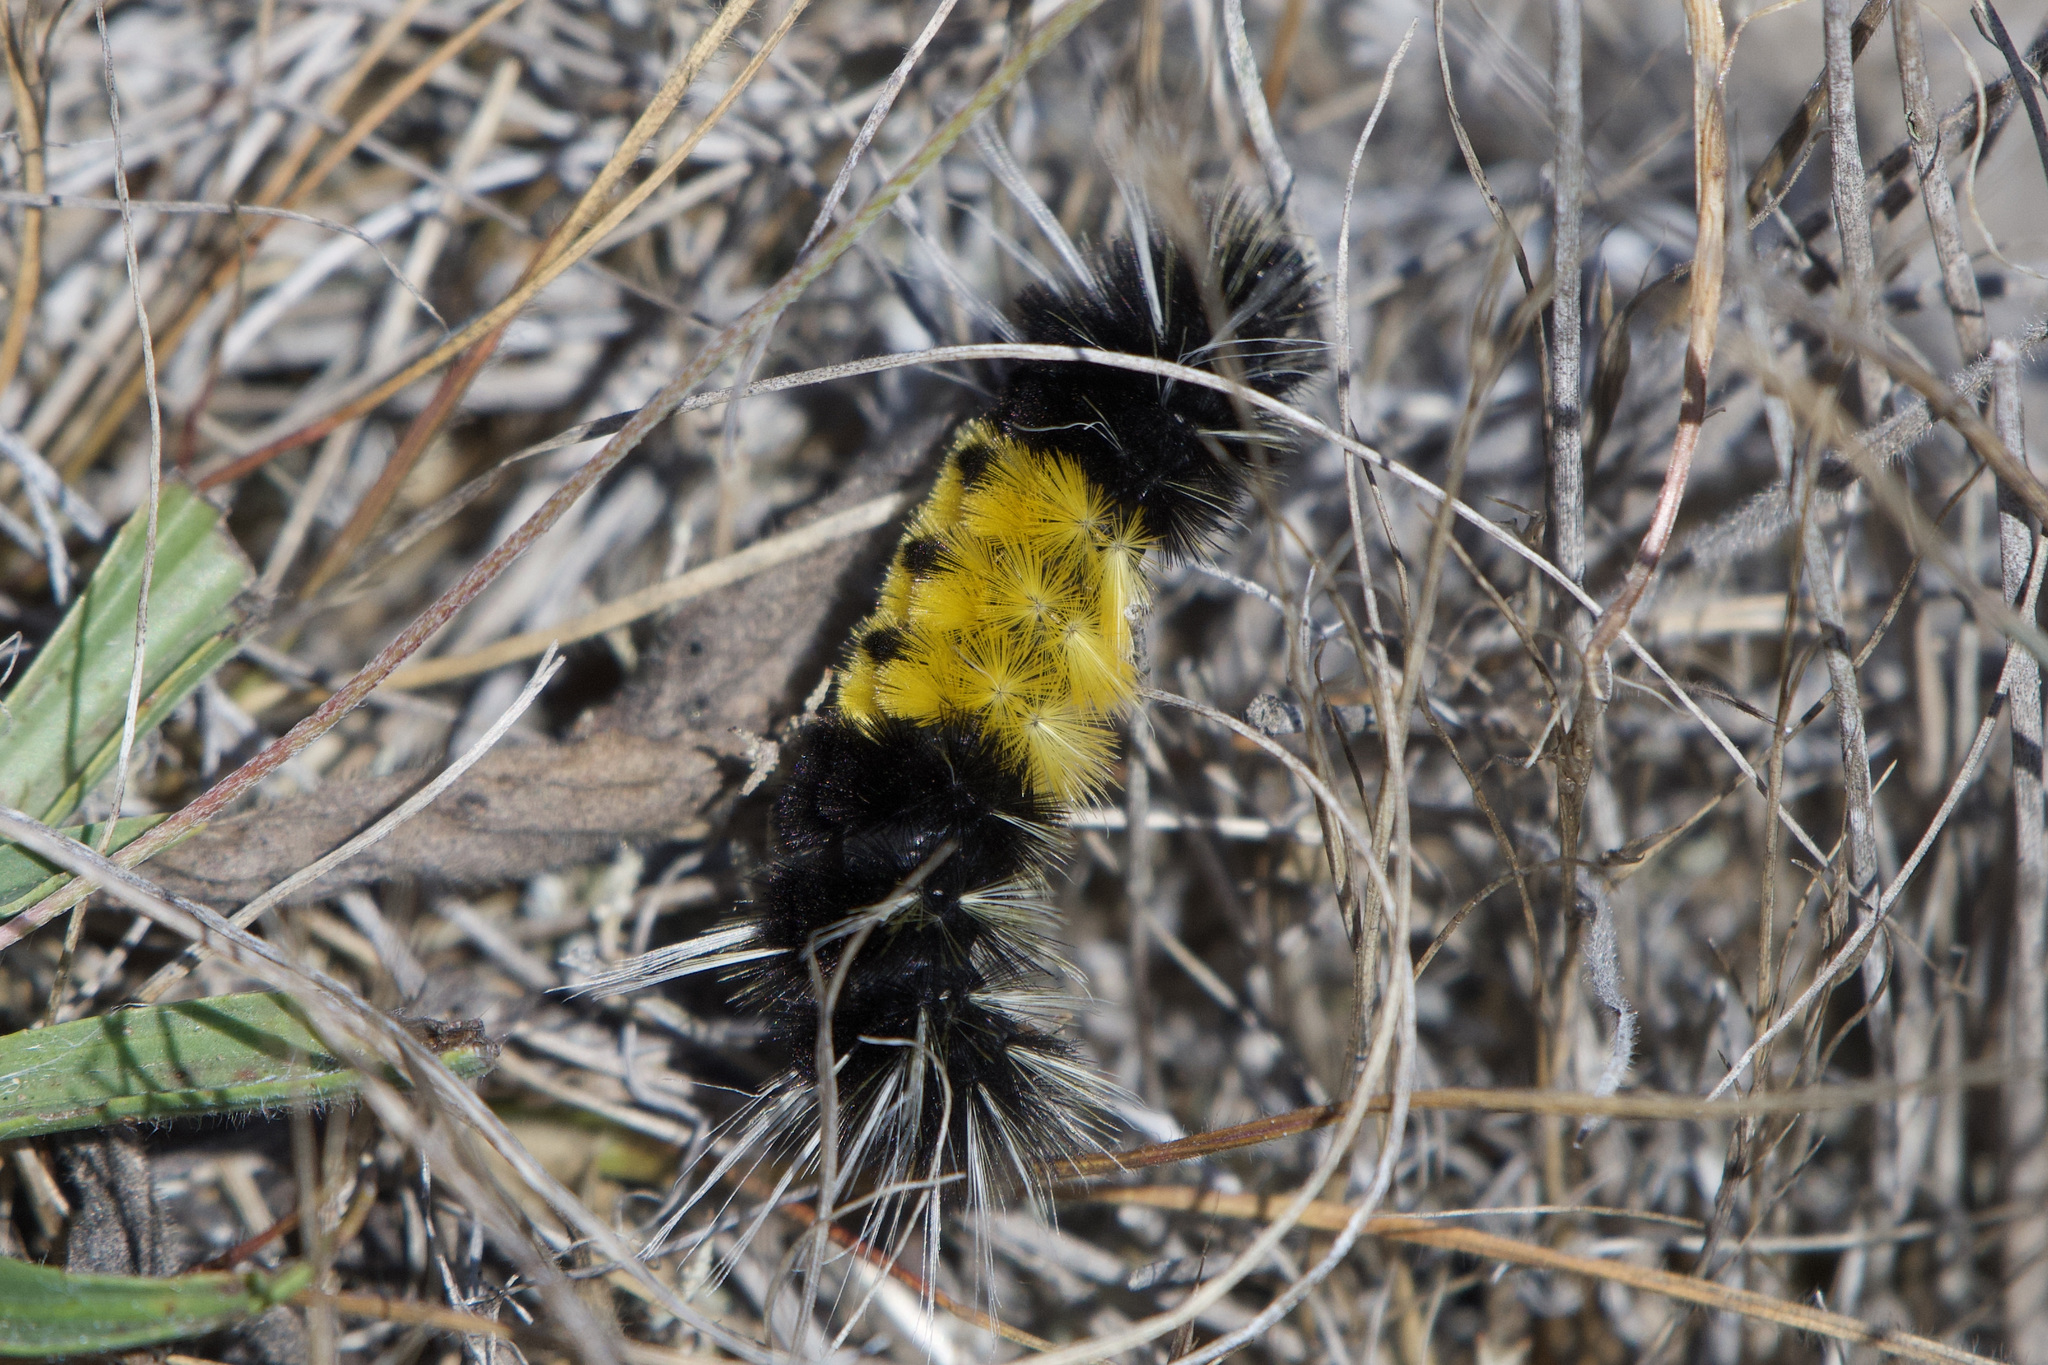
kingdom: Animalia
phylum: Arthropoda
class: Insecta
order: Lepidoptera
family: Erebidae
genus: Lophocampa
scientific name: Lophocampa maculata
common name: Spotted tussock moth
